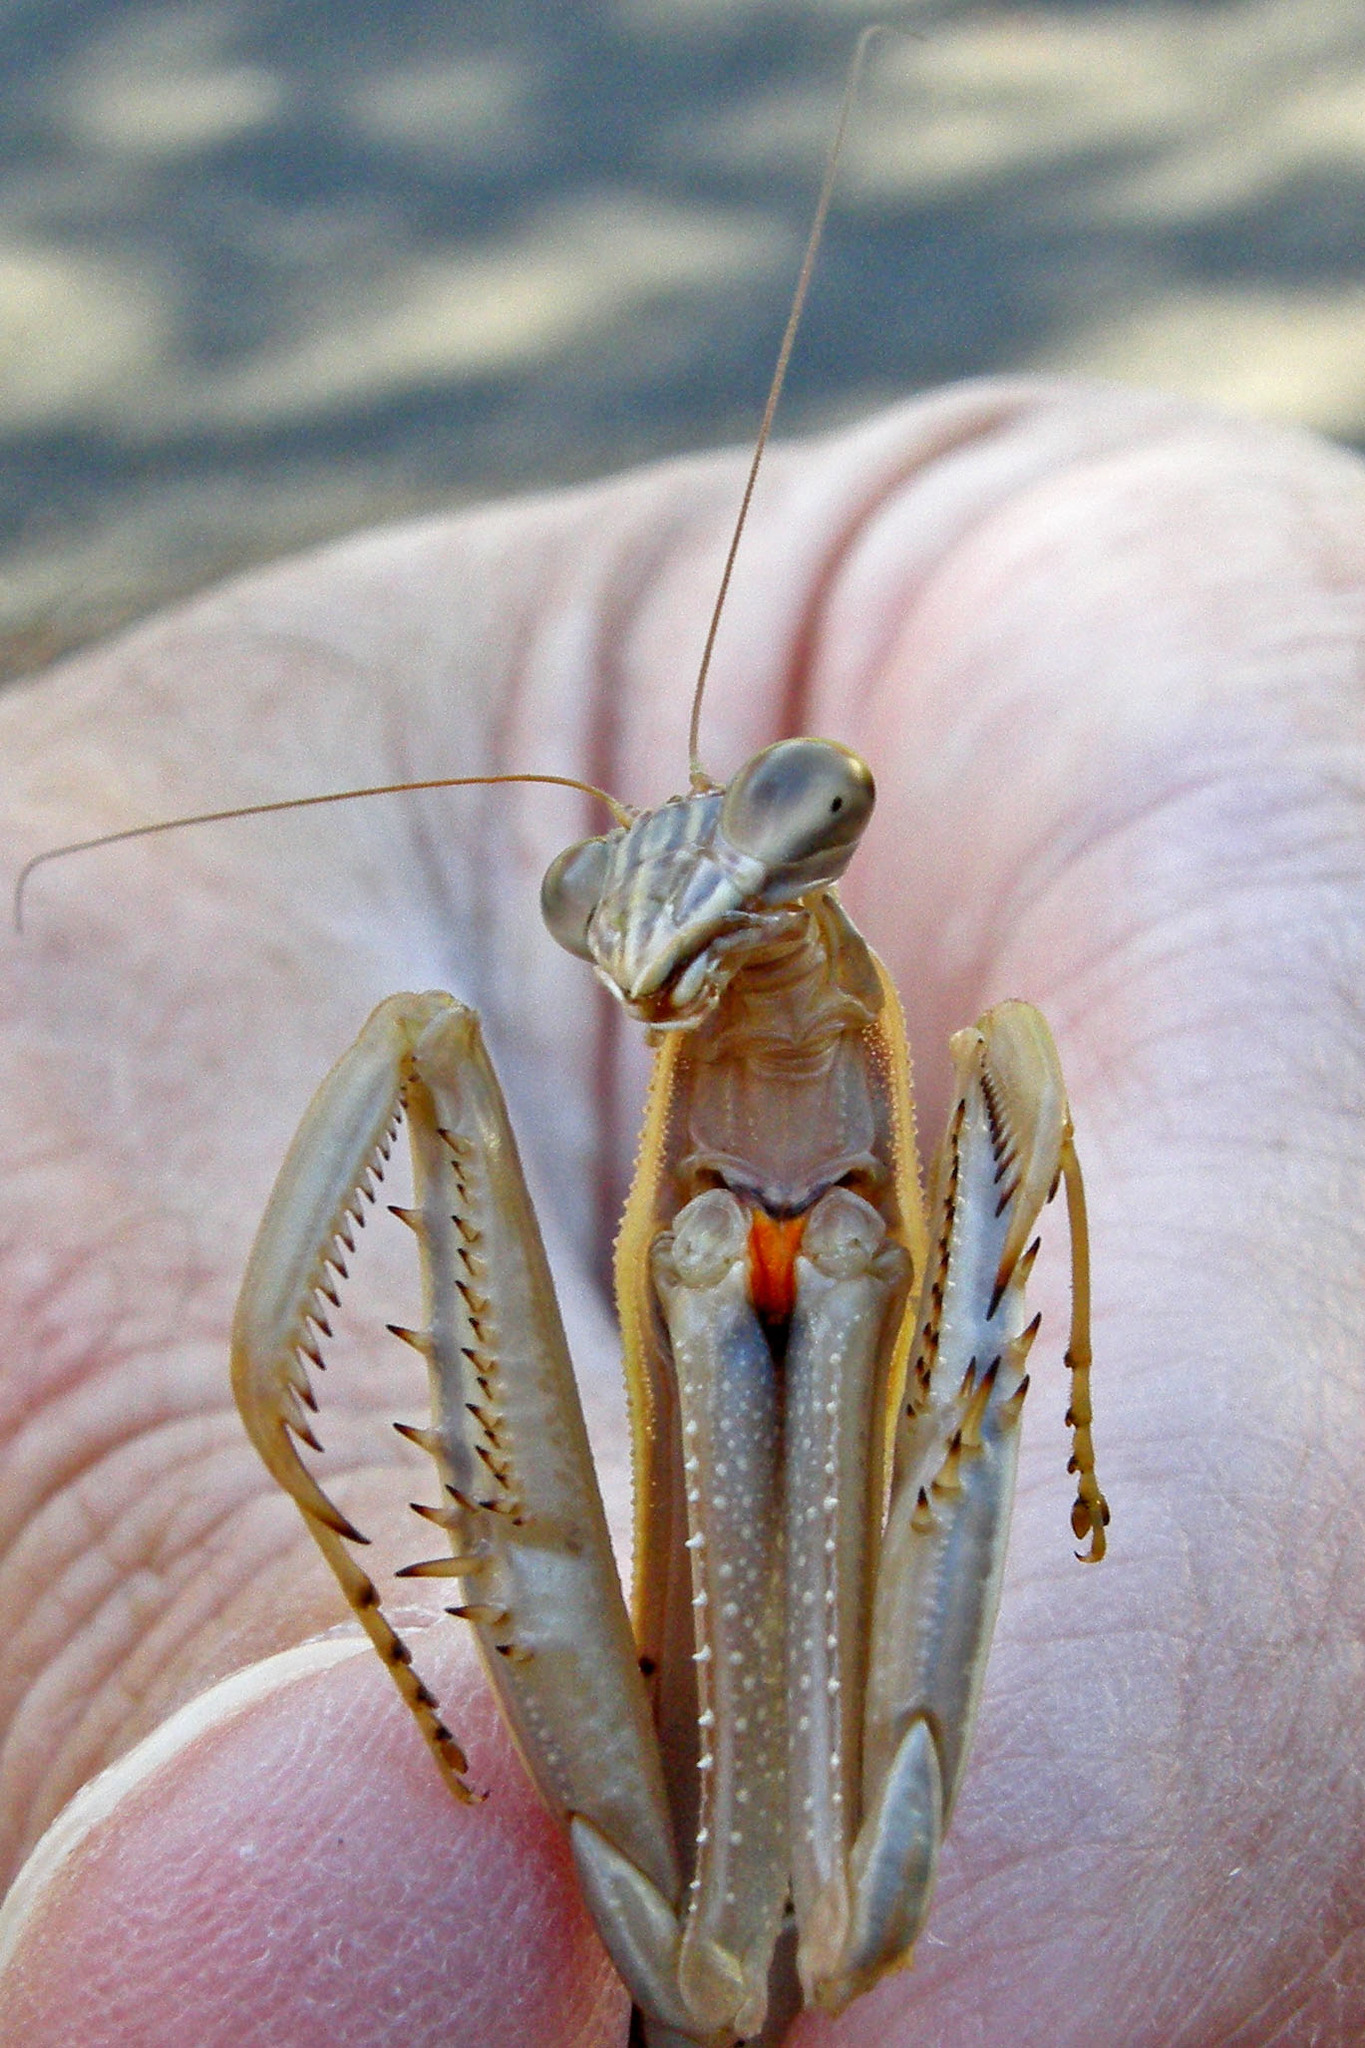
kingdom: Animalia
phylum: Arthropoda
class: Insecta
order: Mantodea
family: Mantidae
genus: Tenodera
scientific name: Tenodera angustipennis
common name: Asian mantis
